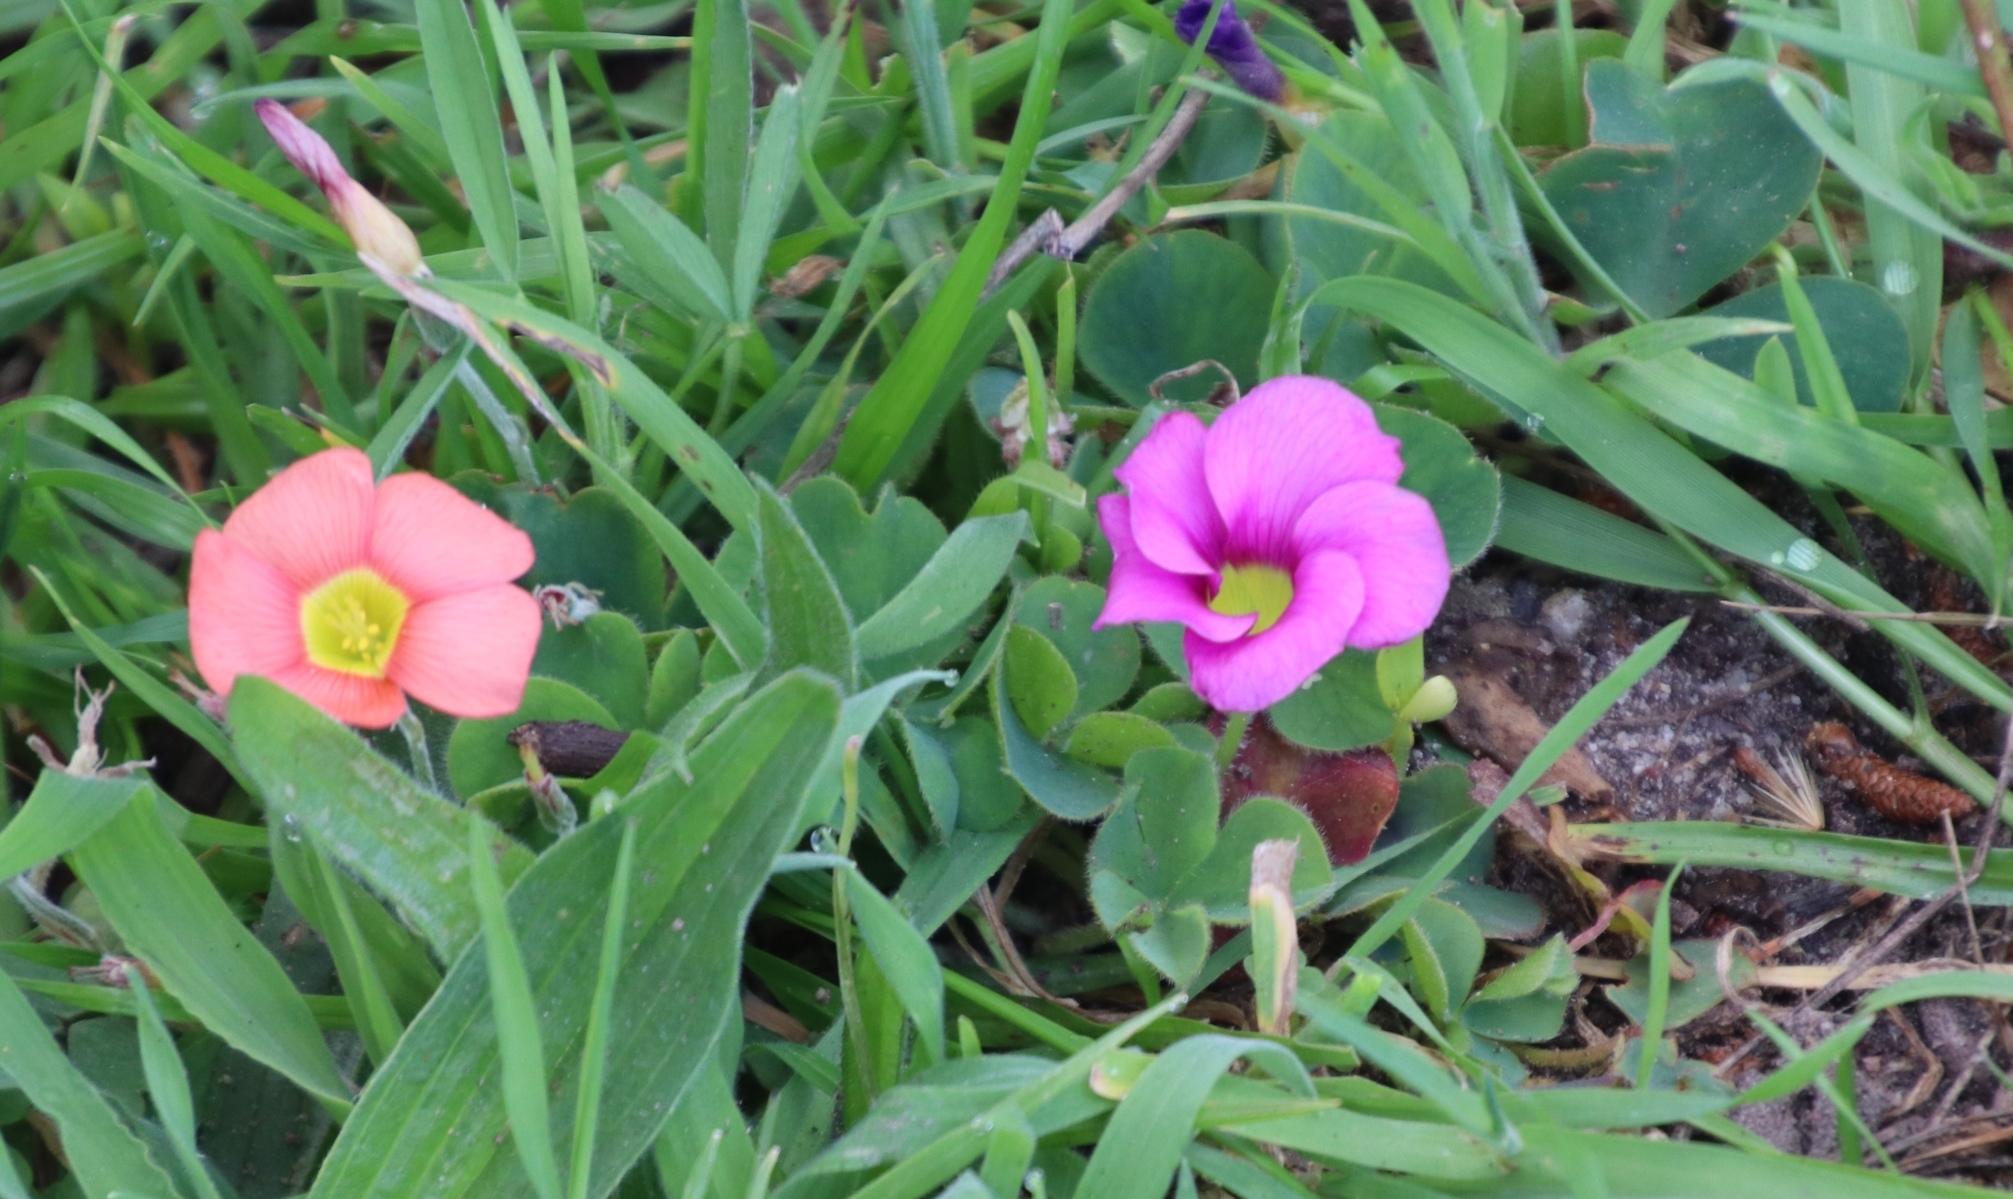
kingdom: Plantae
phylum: Tracheophyta
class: Magnoliopsida
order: Oxalidales
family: Oxalidaceae
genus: Oxalis
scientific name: Oxalis purpurea
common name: Purple woodsorrel
